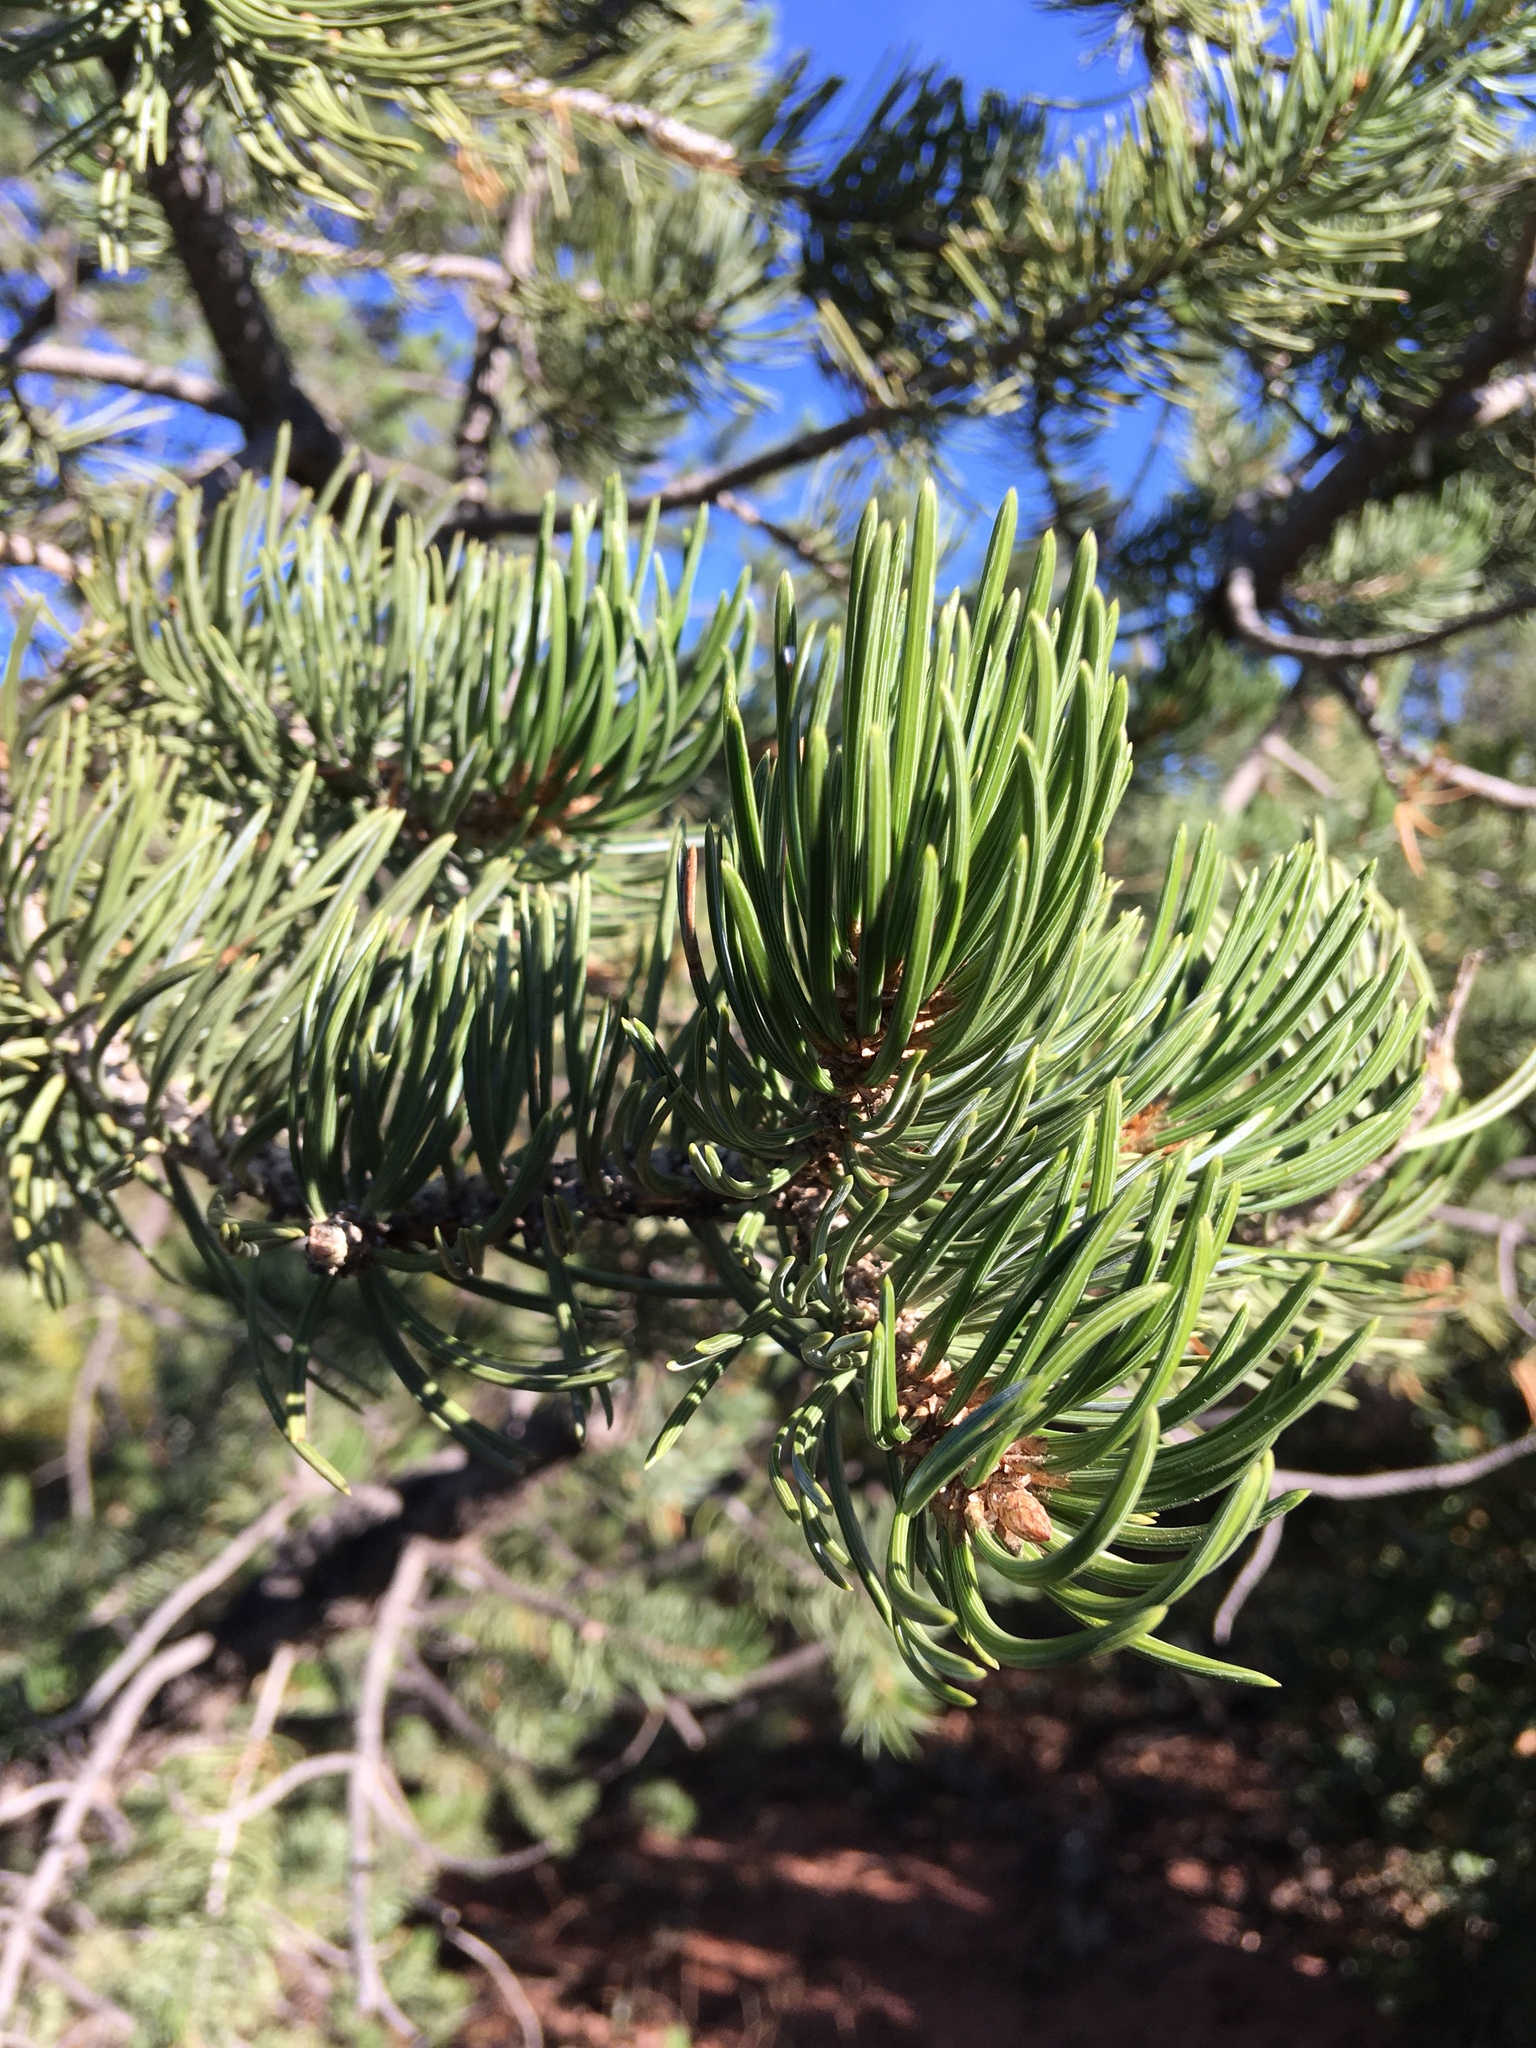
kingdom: Plantae
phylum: Tracheophyta
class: Pinopsida
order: Pinales
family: Pinaceae
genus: Pinus
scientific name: Pinus edulis
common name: Colorado pinyon
